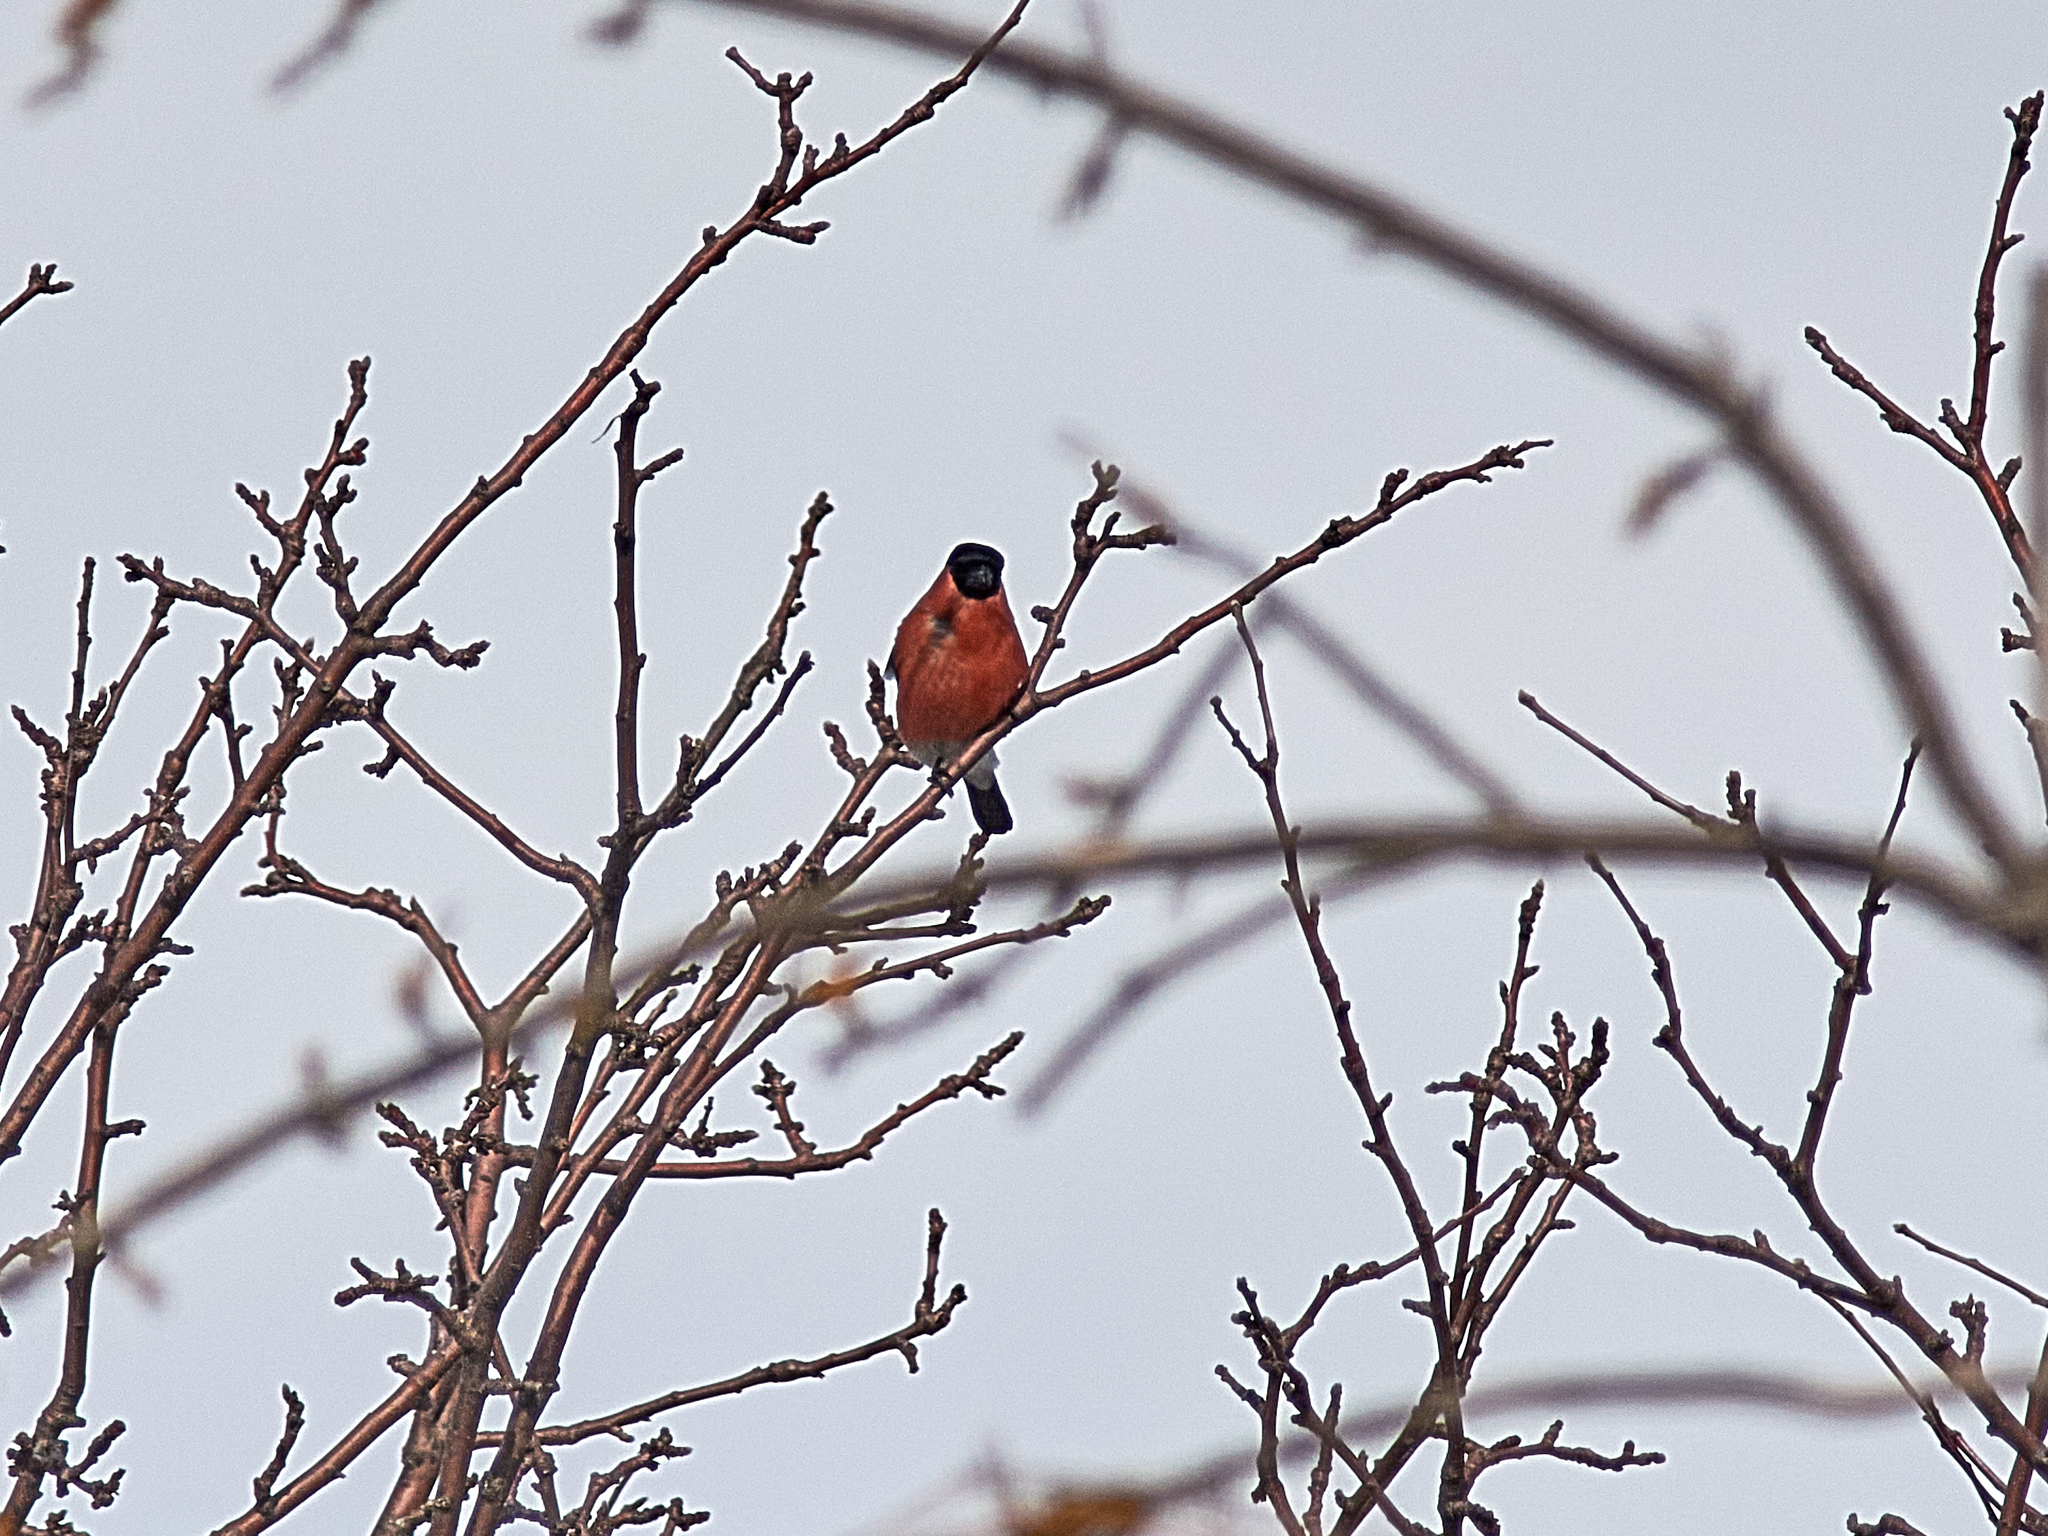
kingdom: Animalia
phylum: Chordata
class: Aves
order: Passeriformes
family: Fringillidae
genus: Pyrrhula
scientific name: Pyrrhula pyrrhula
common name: Eurasian bullfinch
